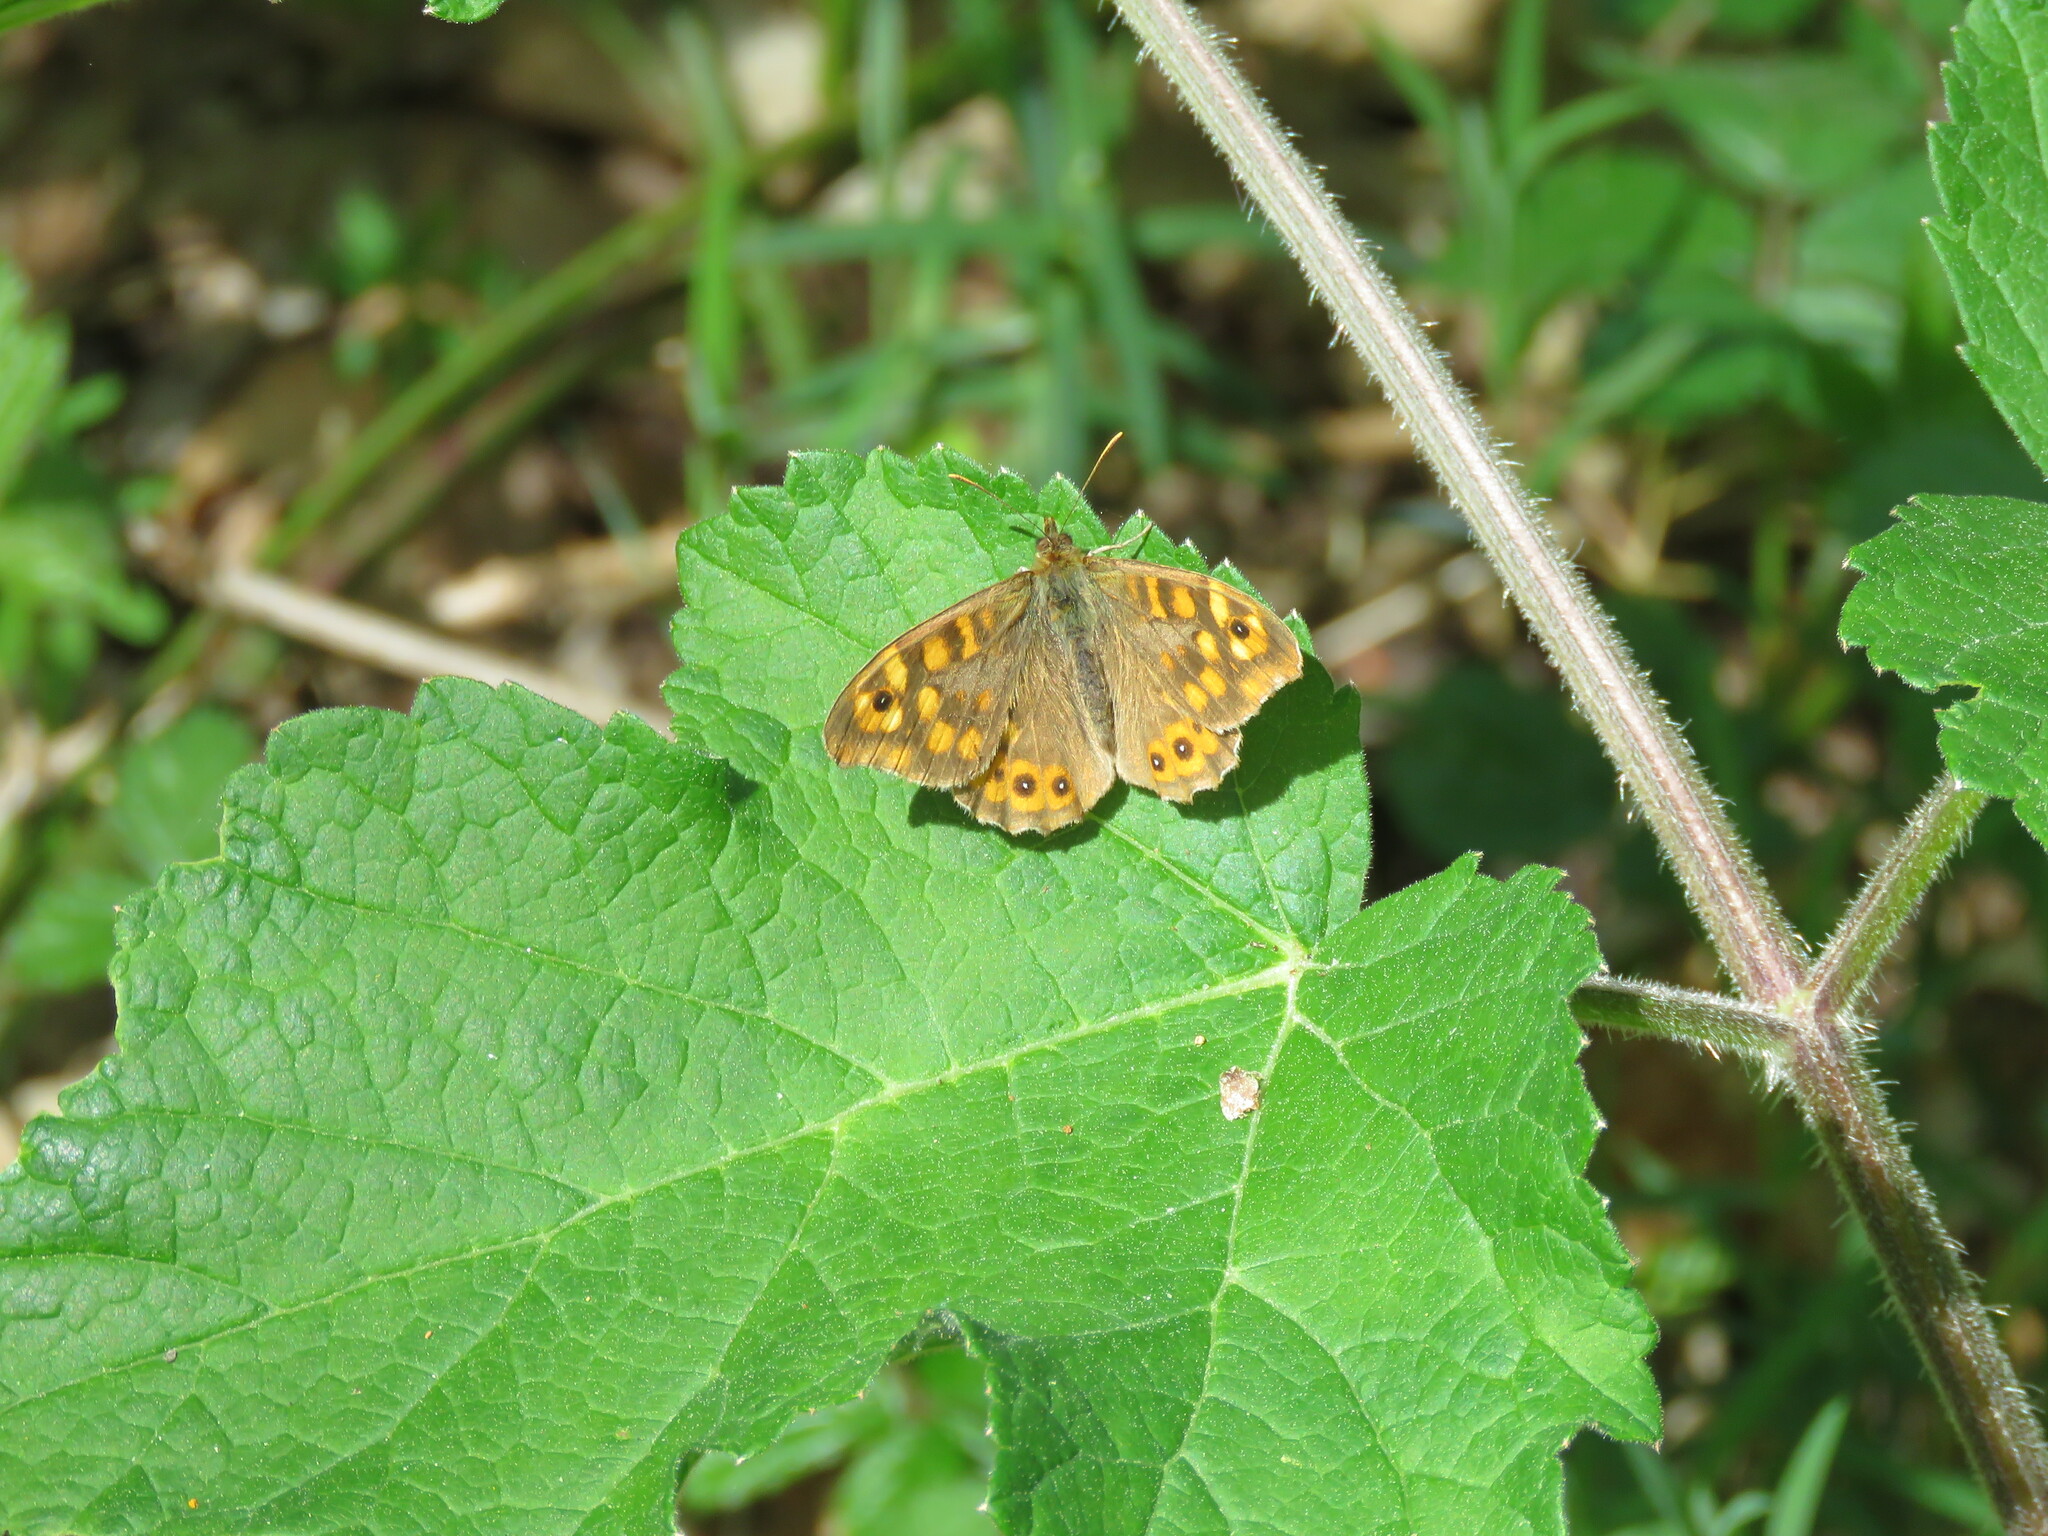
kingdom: Animalia
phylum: Arthropoda
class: Insecta
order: Lepidoptera
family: Nymphalidae
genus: Pararge
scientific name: Pararge aegeria
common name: Speckled wood
